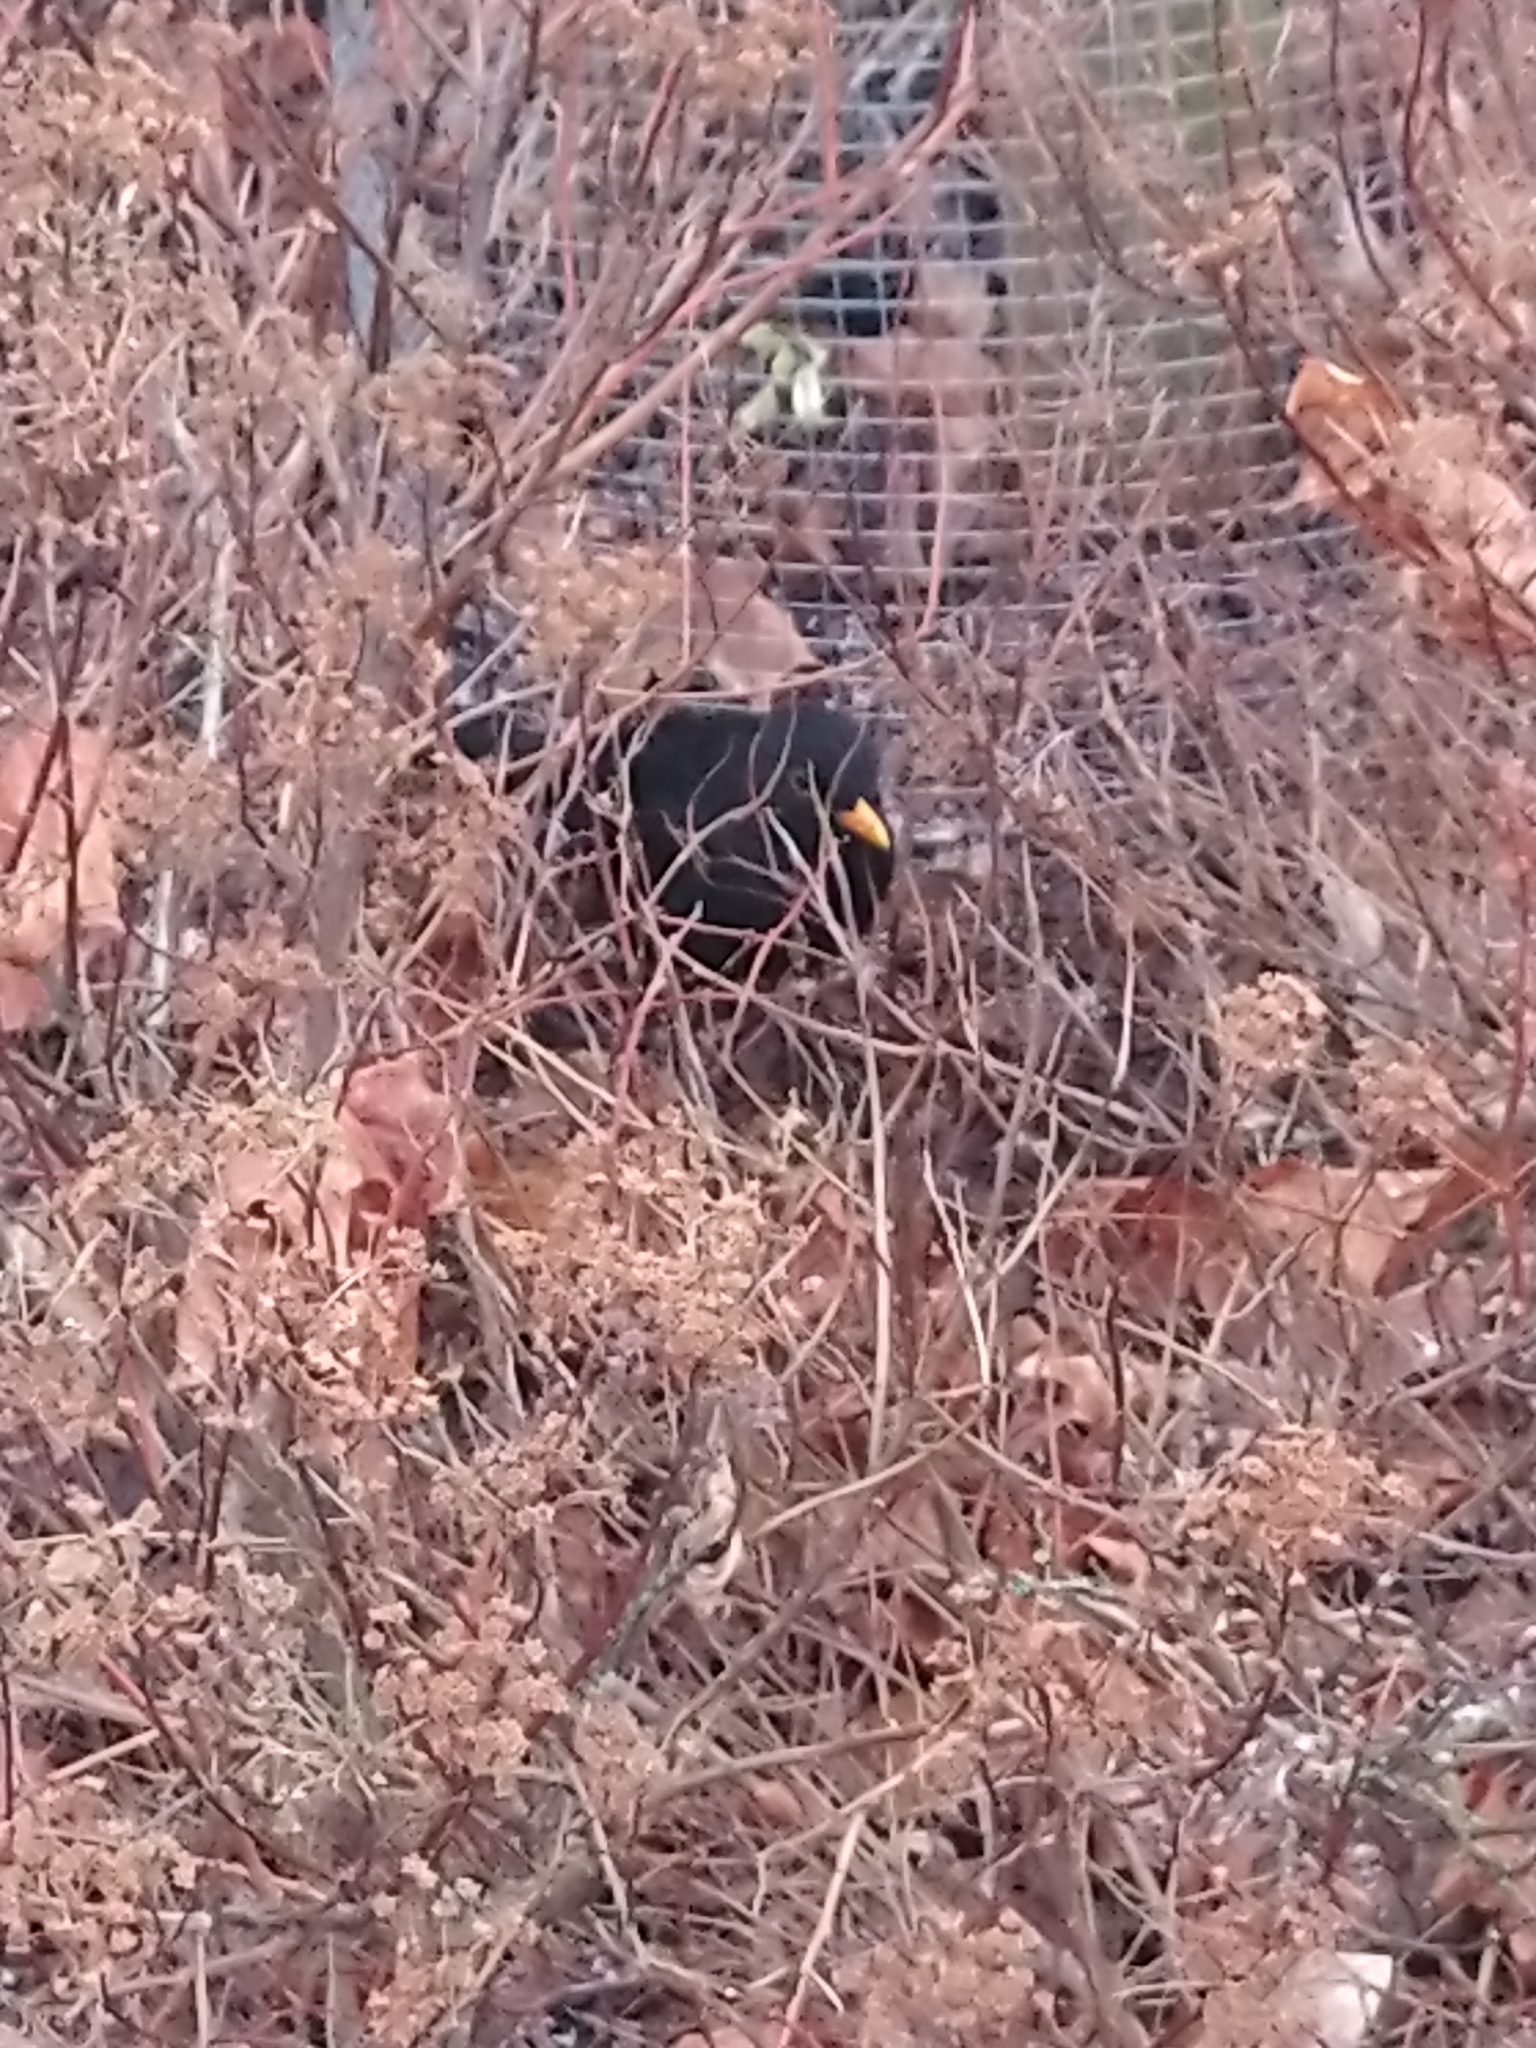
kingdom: Animalia
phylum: Chordata
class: Aves
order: Passeriformes
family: Turdidae
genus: Turdus
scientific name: Turdus merula
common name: Common blackbird
